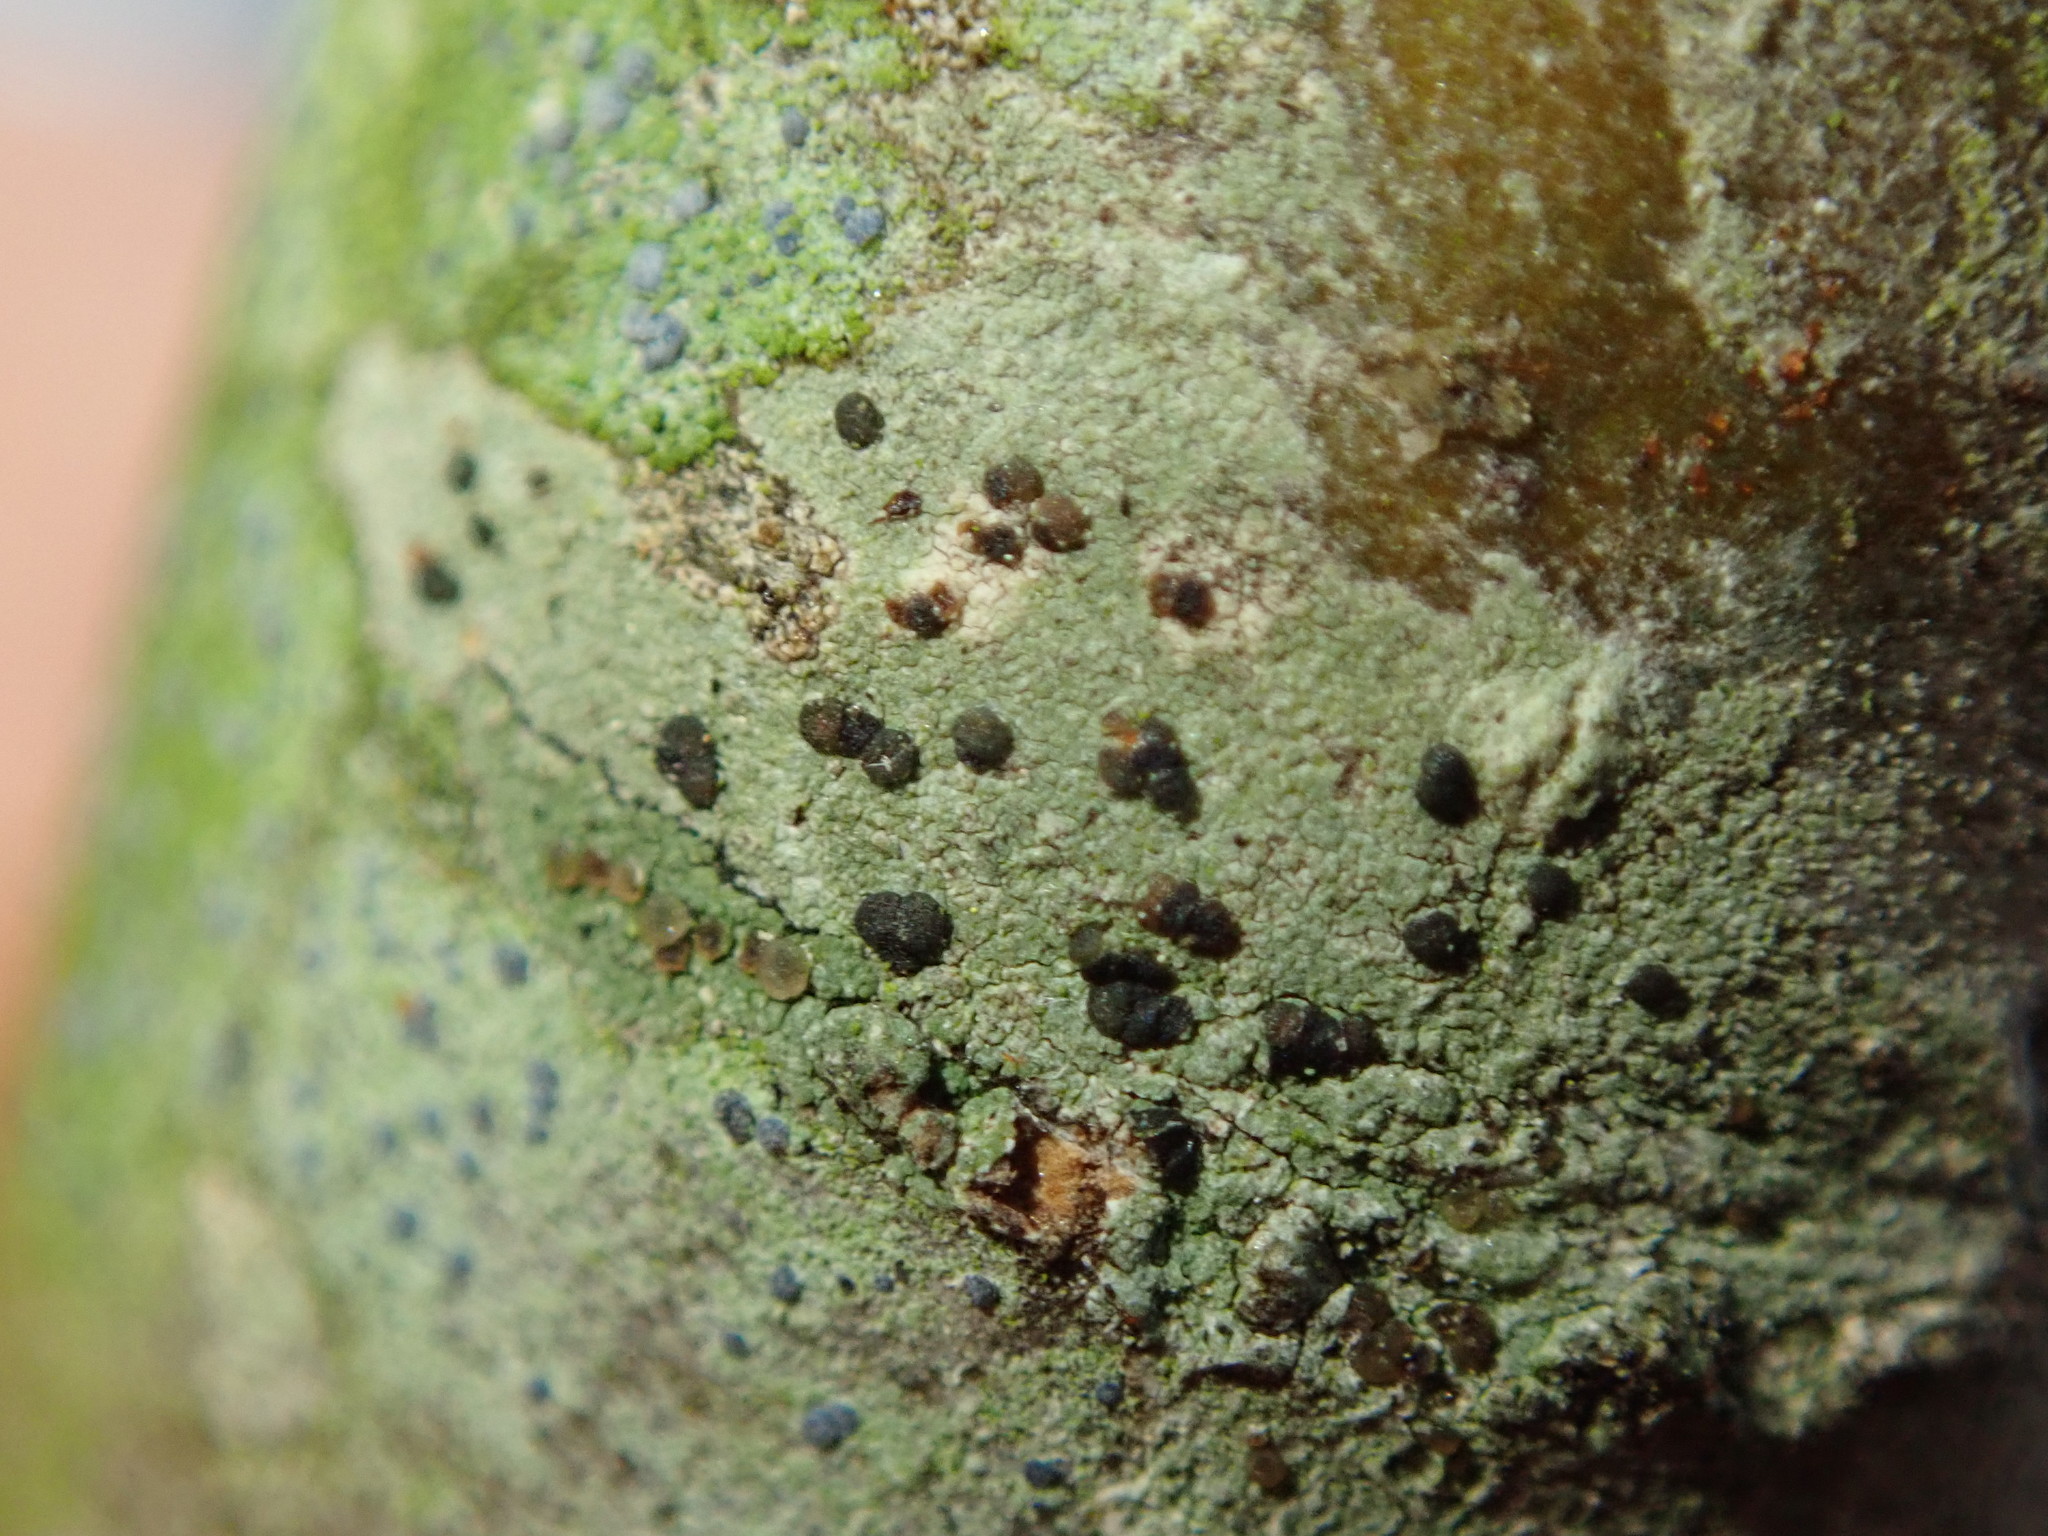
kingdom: Fungi
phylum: Ascomycota
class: Lecanoromycetes
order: Lecanorales
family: Lecanoraceae
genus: Traponora
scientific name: Traponora varians
